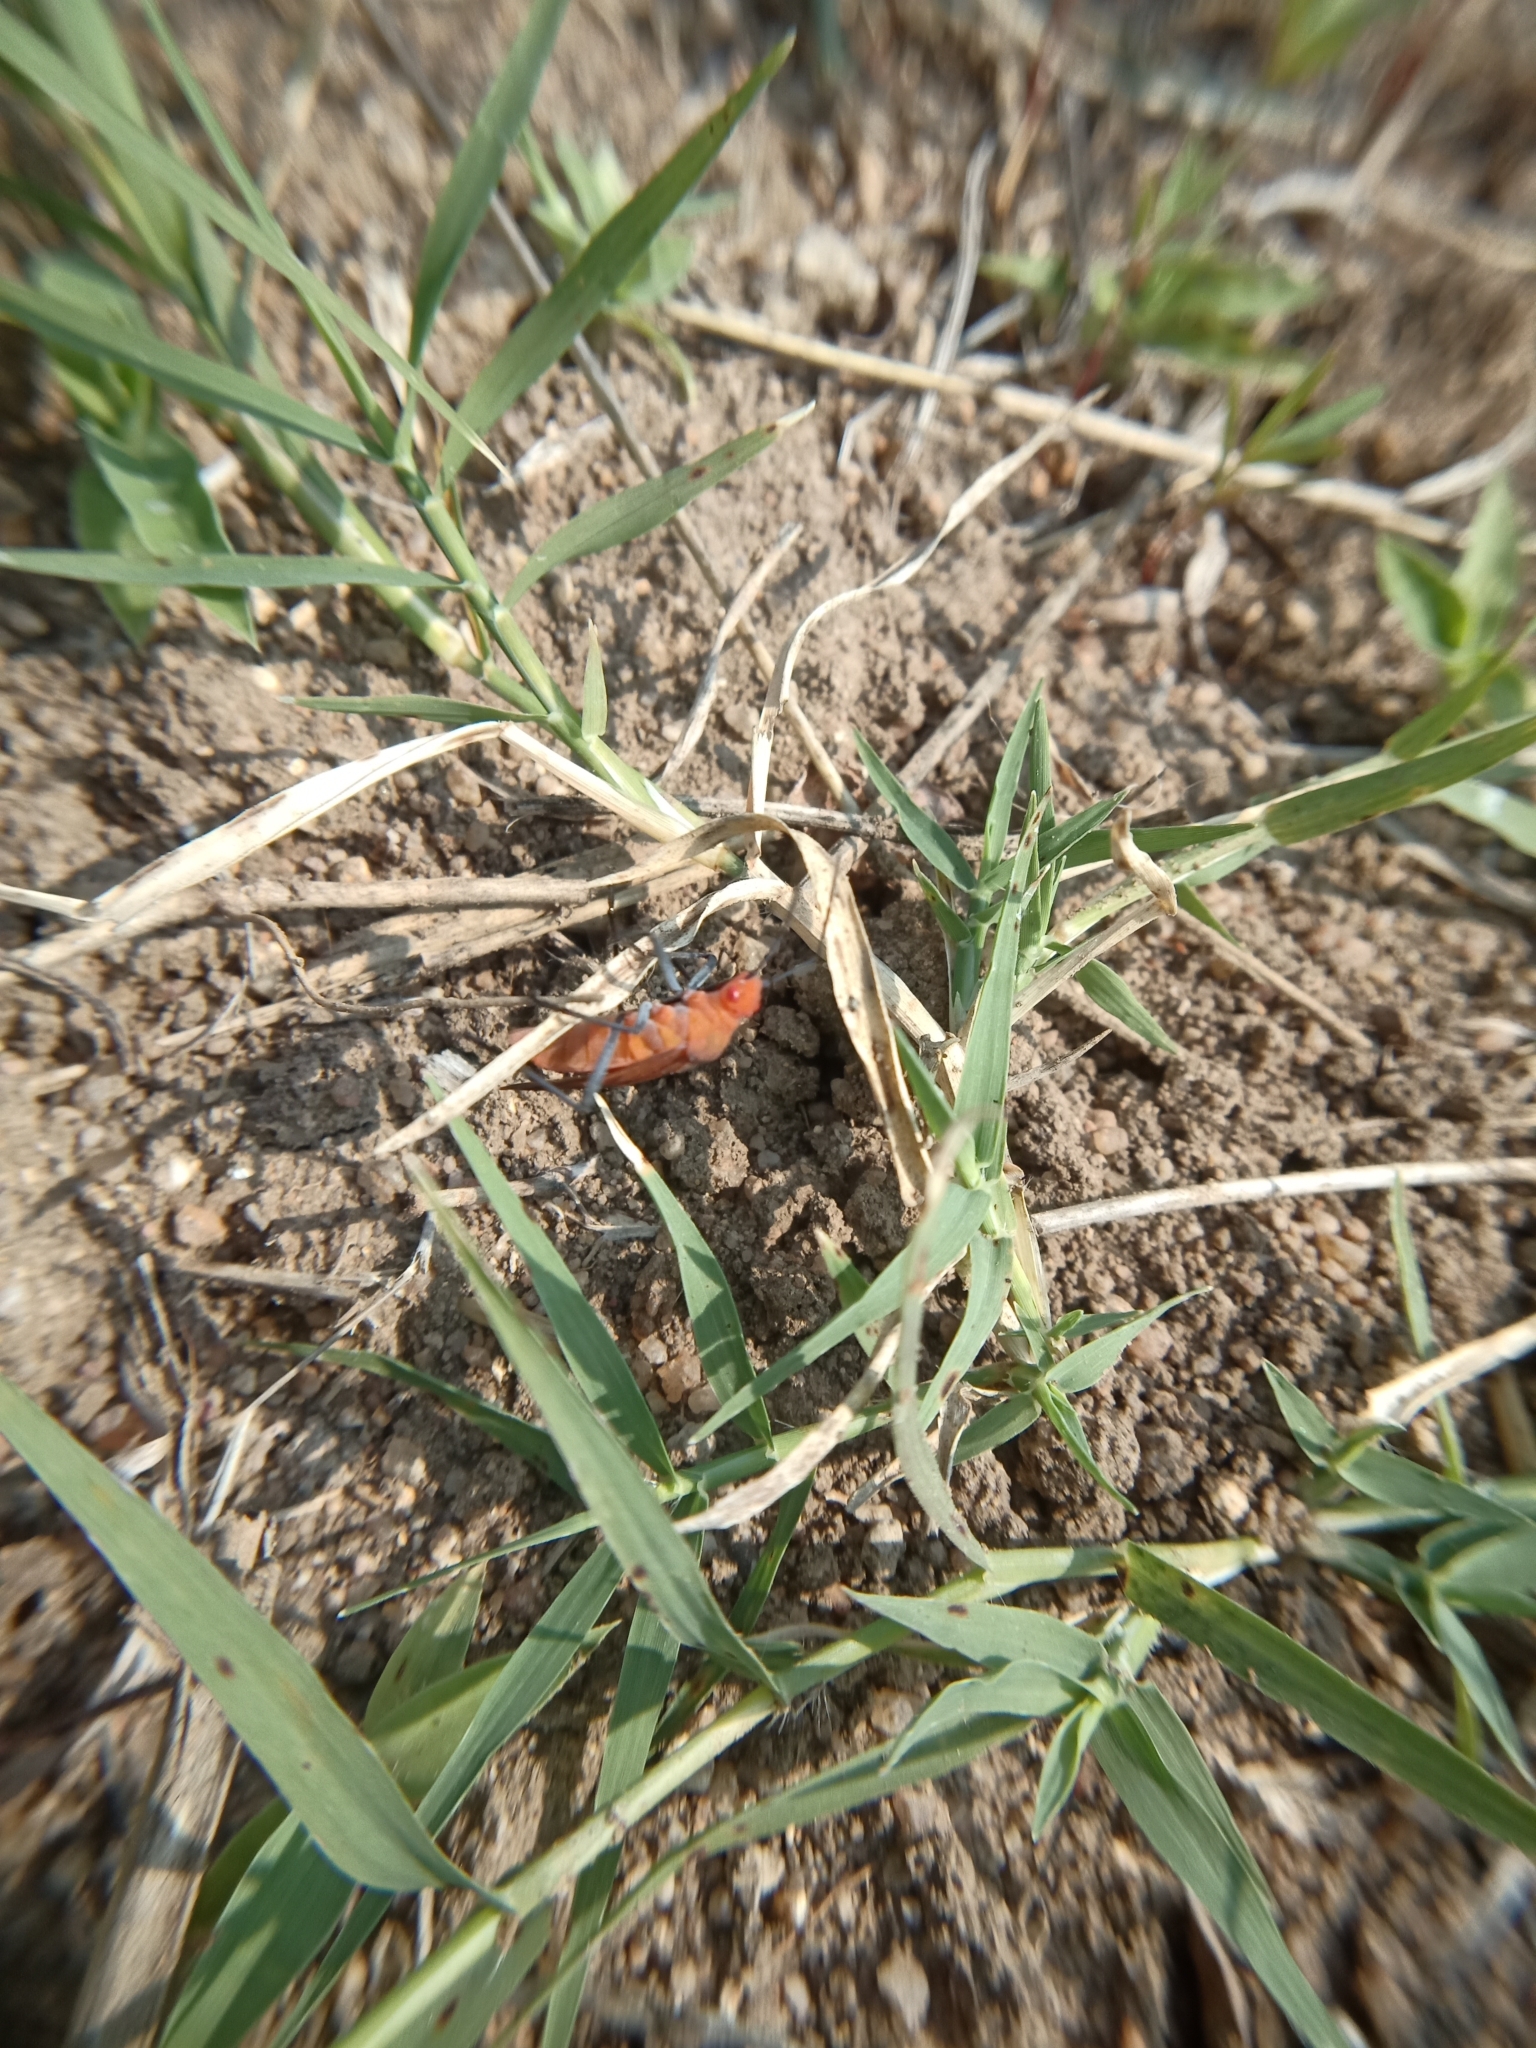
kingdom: Animalia
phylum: Arthropoda
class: Insecta
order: Hemiptera
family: Rhopalidae
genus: Leptocoris
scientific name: Leptocoris augur
